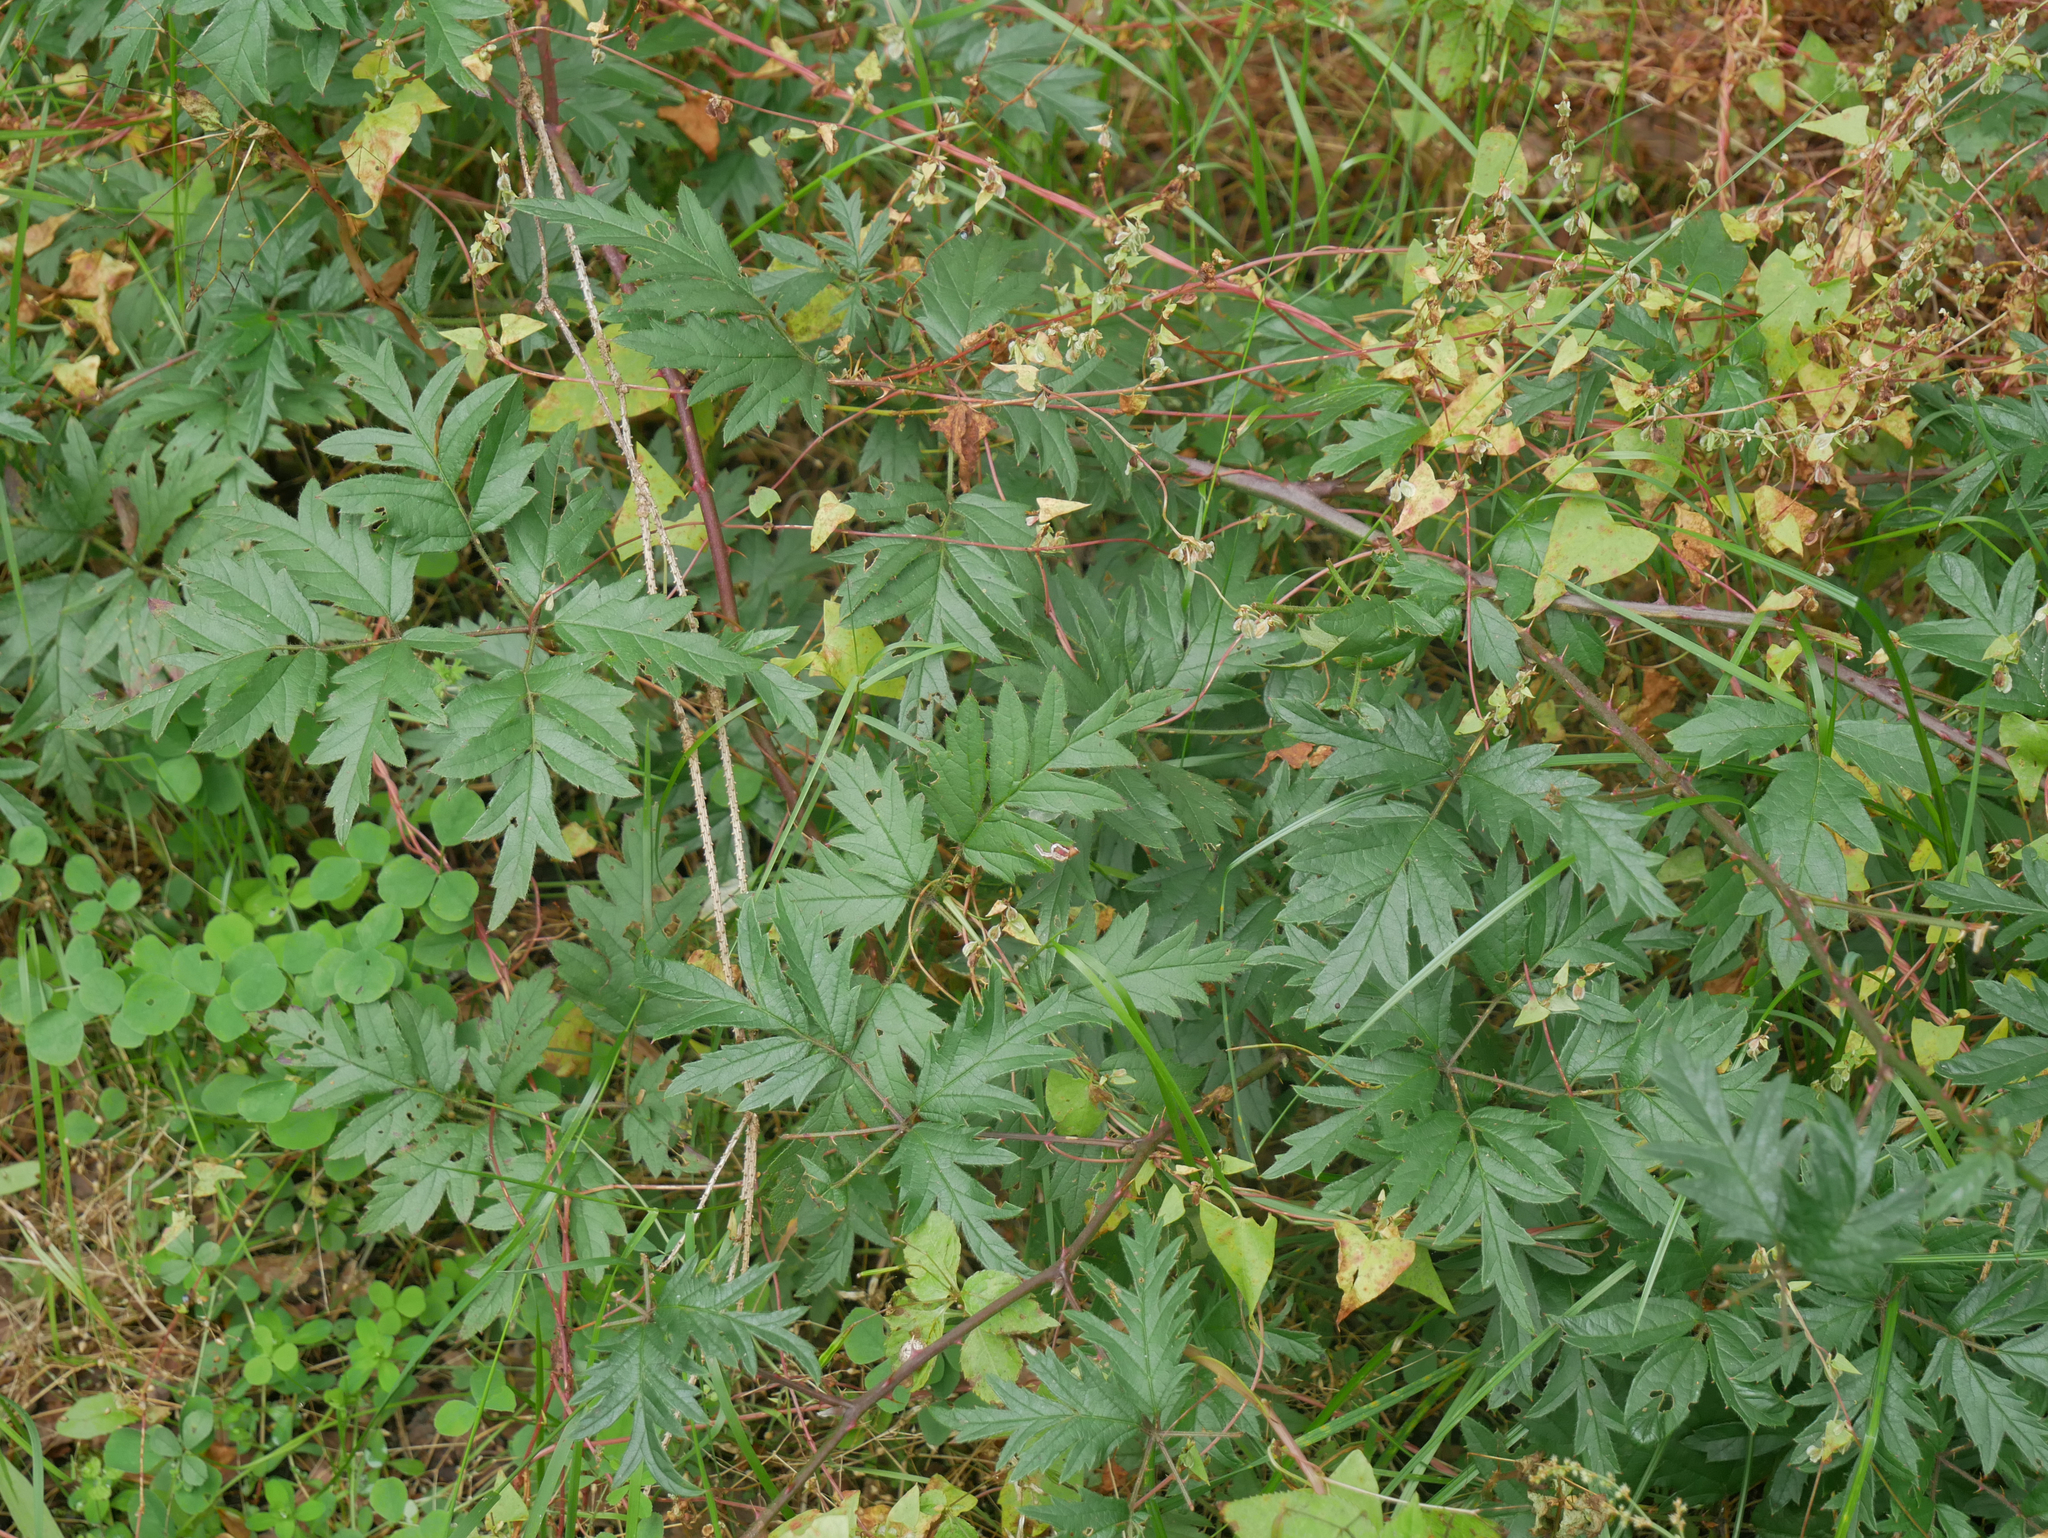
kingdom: Plantae
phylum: Tracheophyta
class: Magnoliopsida
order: Rosales
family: Rosaceae
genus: Rubus
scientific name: Rubus laciniatus
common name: Evergreen blackberry
